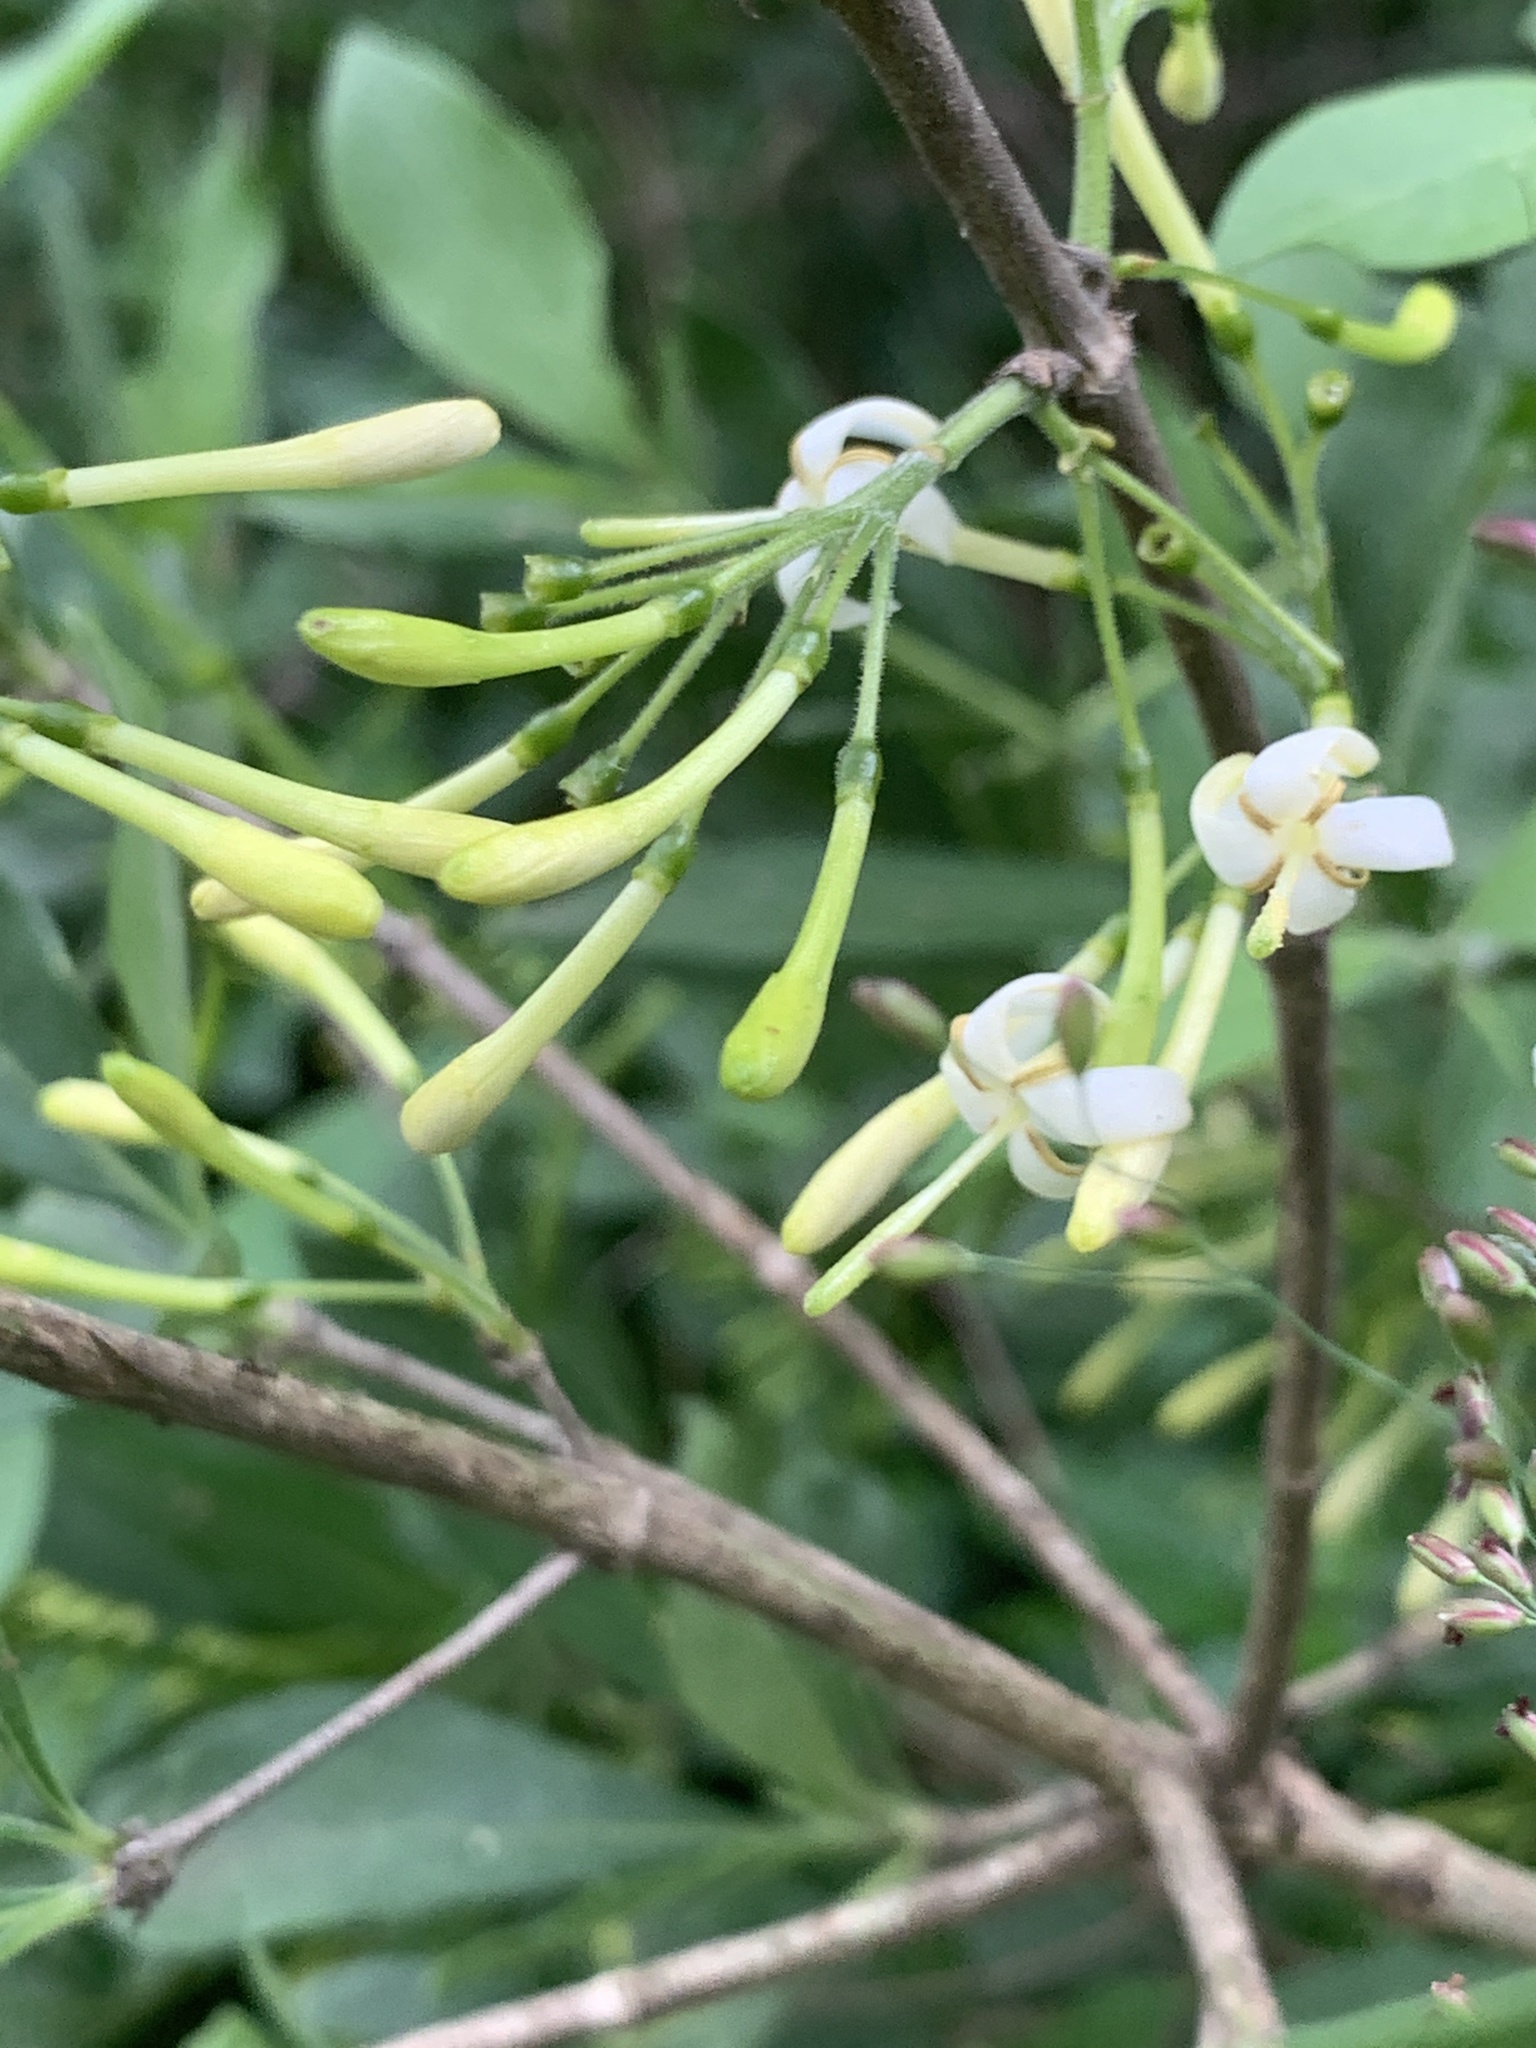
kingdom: Plantae
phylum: Tracheophyta
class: Magnoliopsida
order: Gentianales
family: Rubiaceae
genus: Pavetta
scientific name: Pavetta gardeniifolia
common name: Common brides-bush
